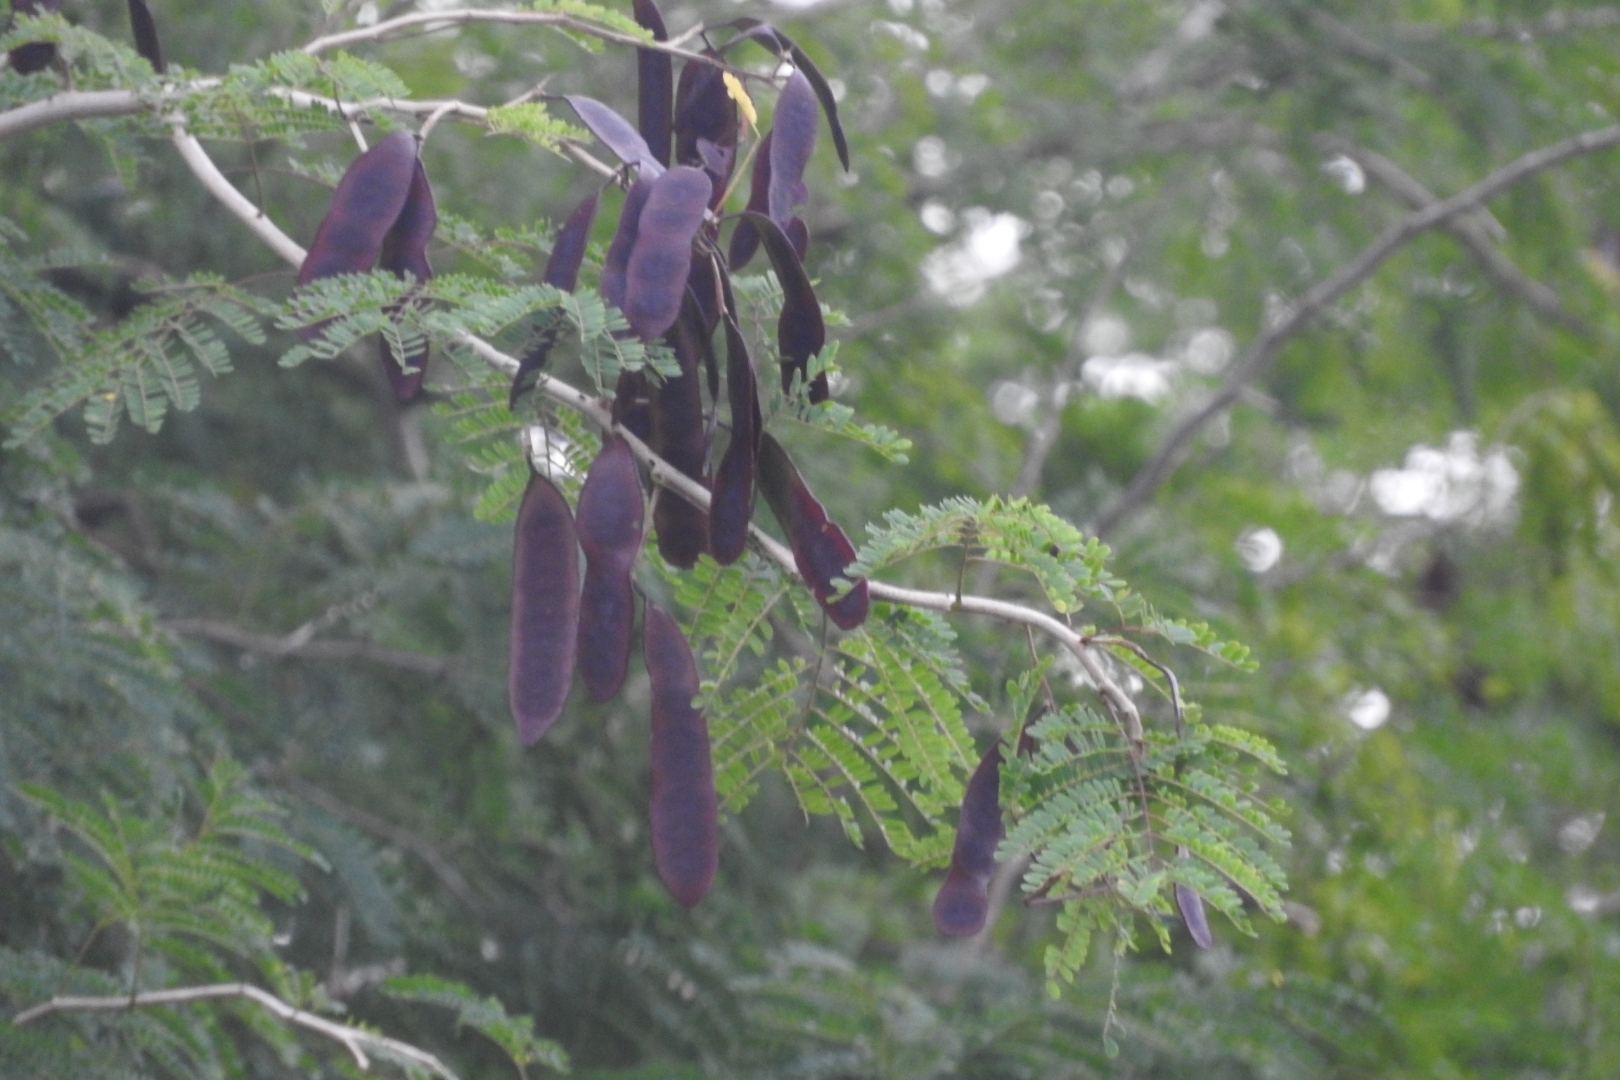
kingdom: Plantae
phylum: Tracheophyta
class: Magnoliopsida
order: Fabales
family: Fabaceae
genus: Senegalia
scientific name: Senegalia gaumeri
